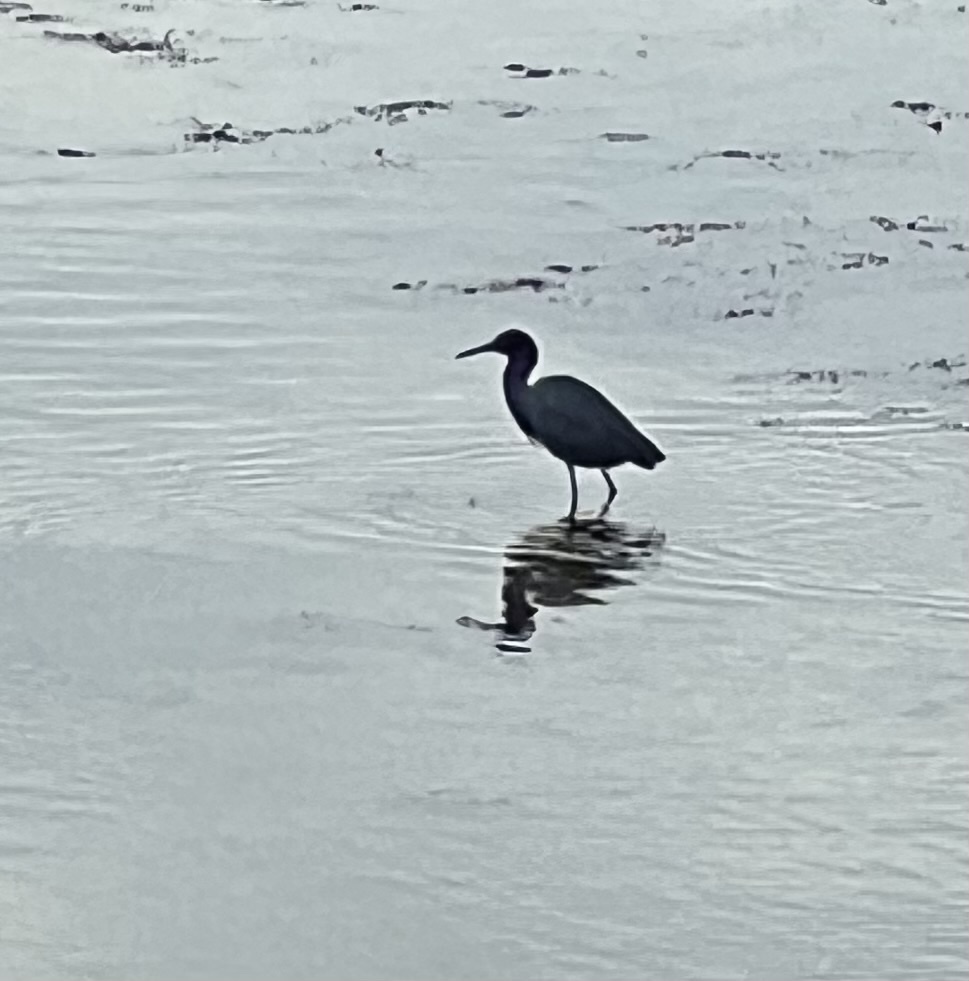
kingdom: Animalia
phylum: Chordata
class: Aves
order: Pelecaniformes
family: Ardeidae
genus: Egretta
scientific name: Egretta caerulea
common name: Little blue heron
